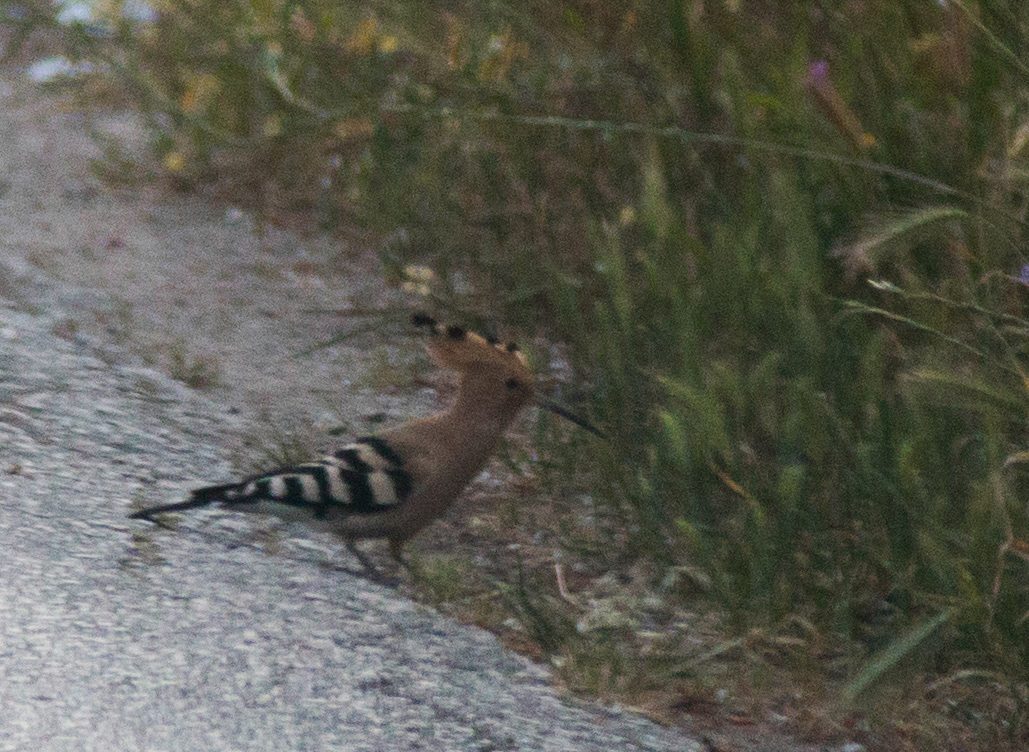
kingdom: Animalia
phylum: Chordata
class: Aves
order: Bucerotiformes
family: Upupidae
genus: Upupa
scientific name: Upupa epops
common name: Eurasian hoopoe
